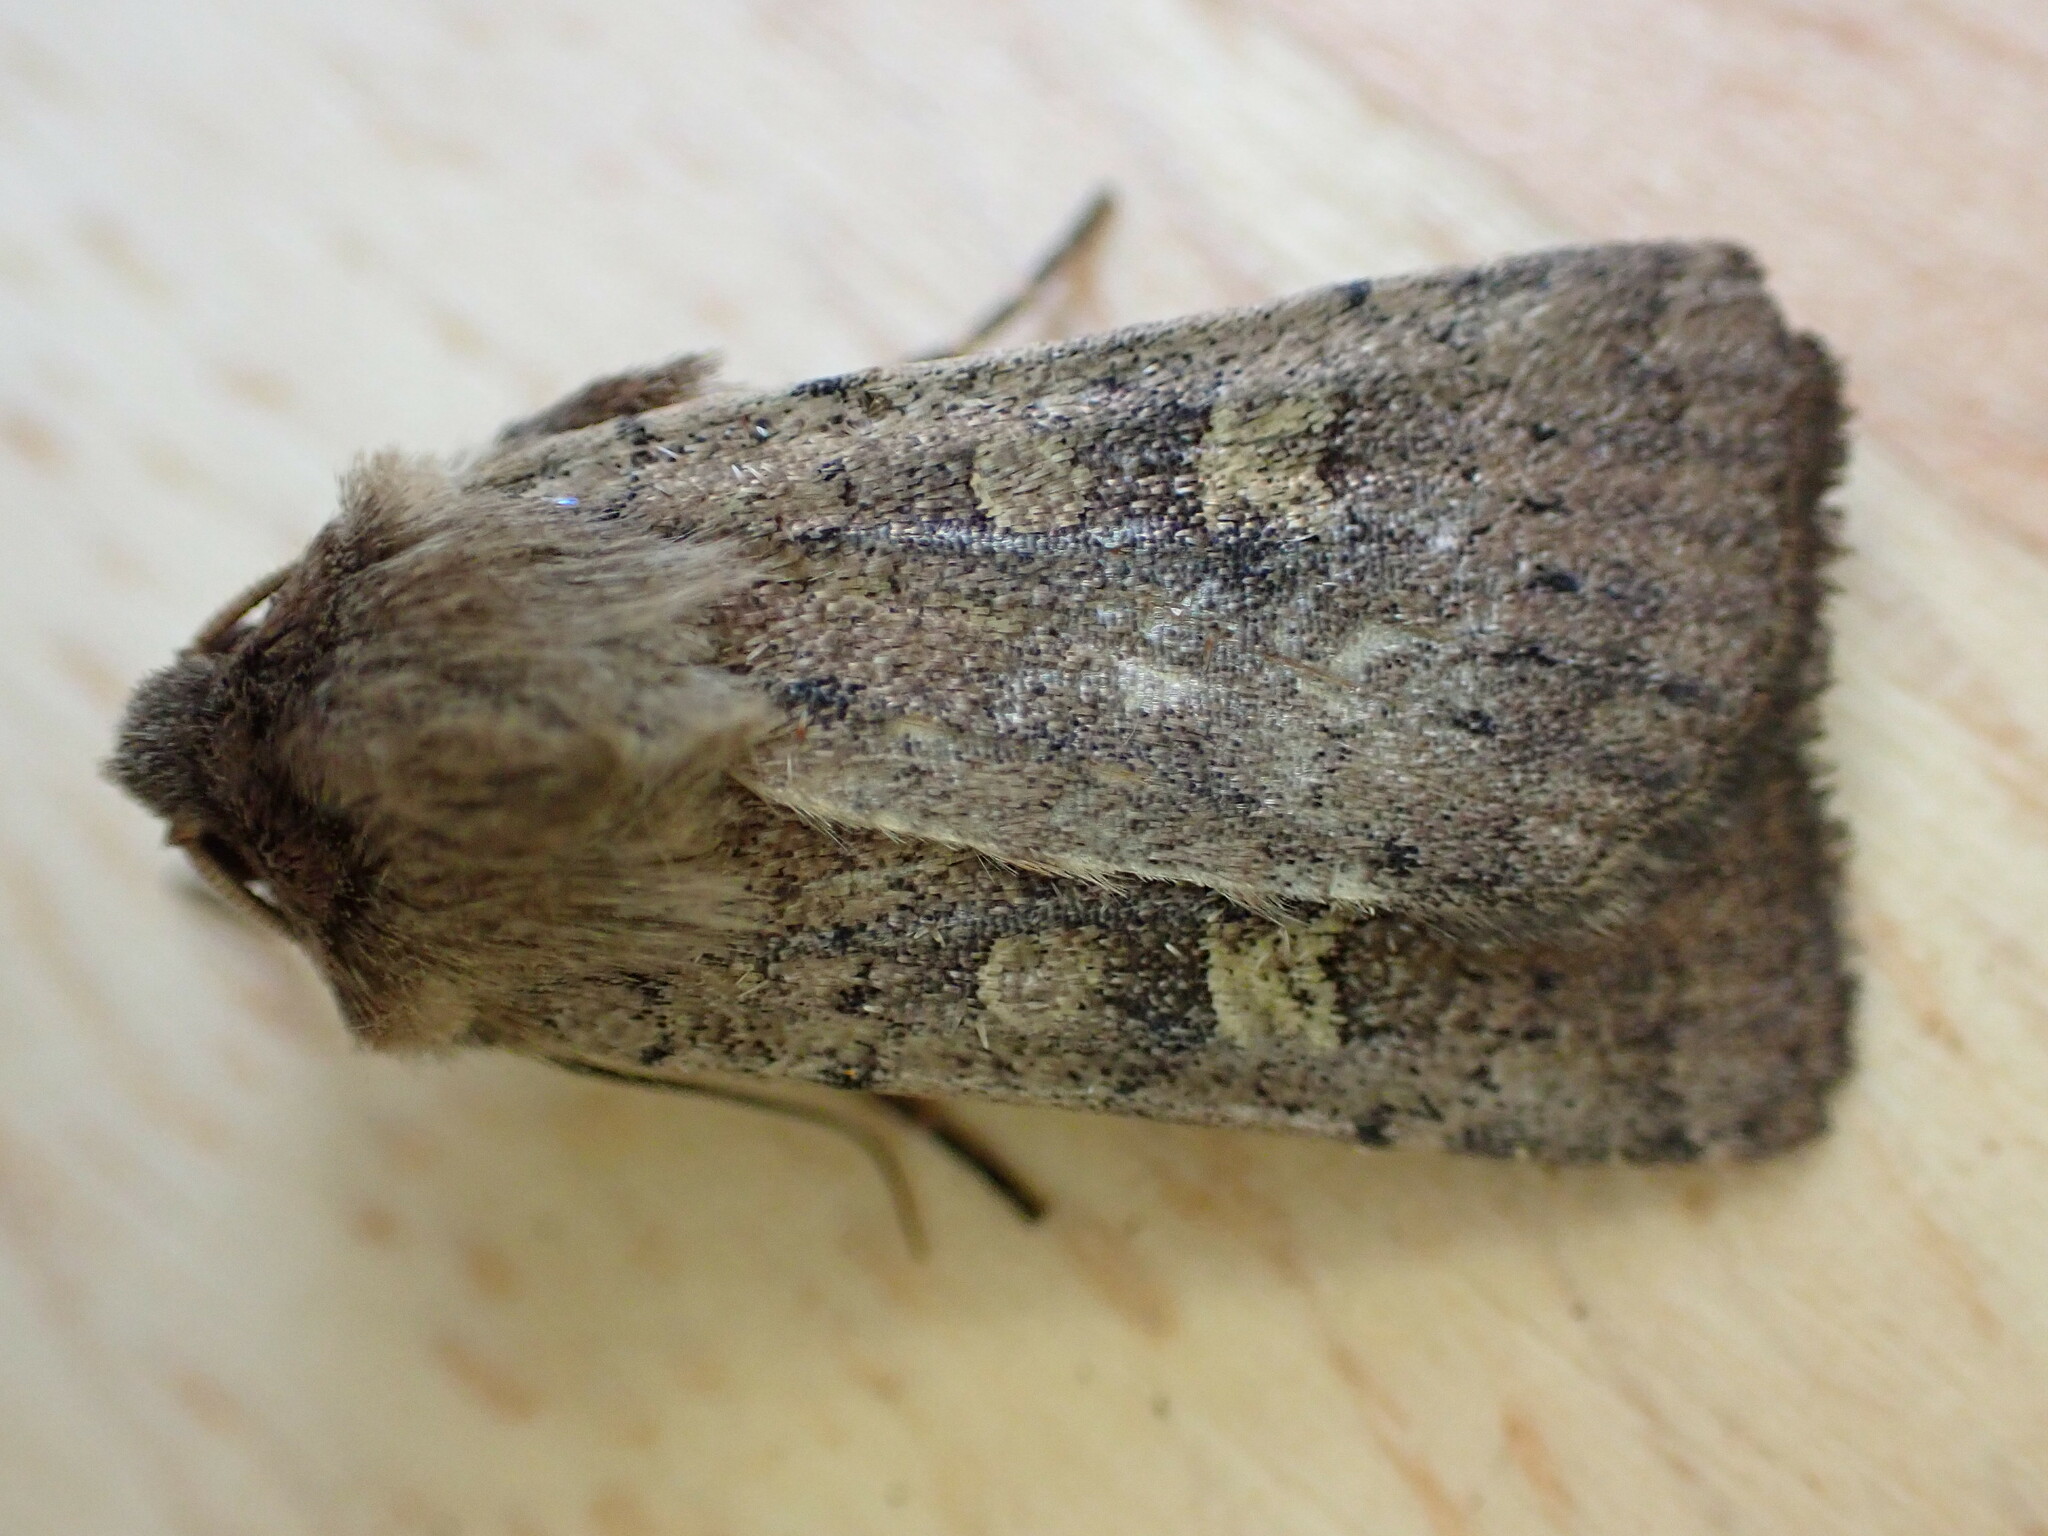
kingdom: Animalia
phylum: Arthropoda
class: Insecta
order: Lepidoptera
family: Noctuidae
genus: Xestia
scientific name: Xestia xanthographa
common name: Square-spot rustic
